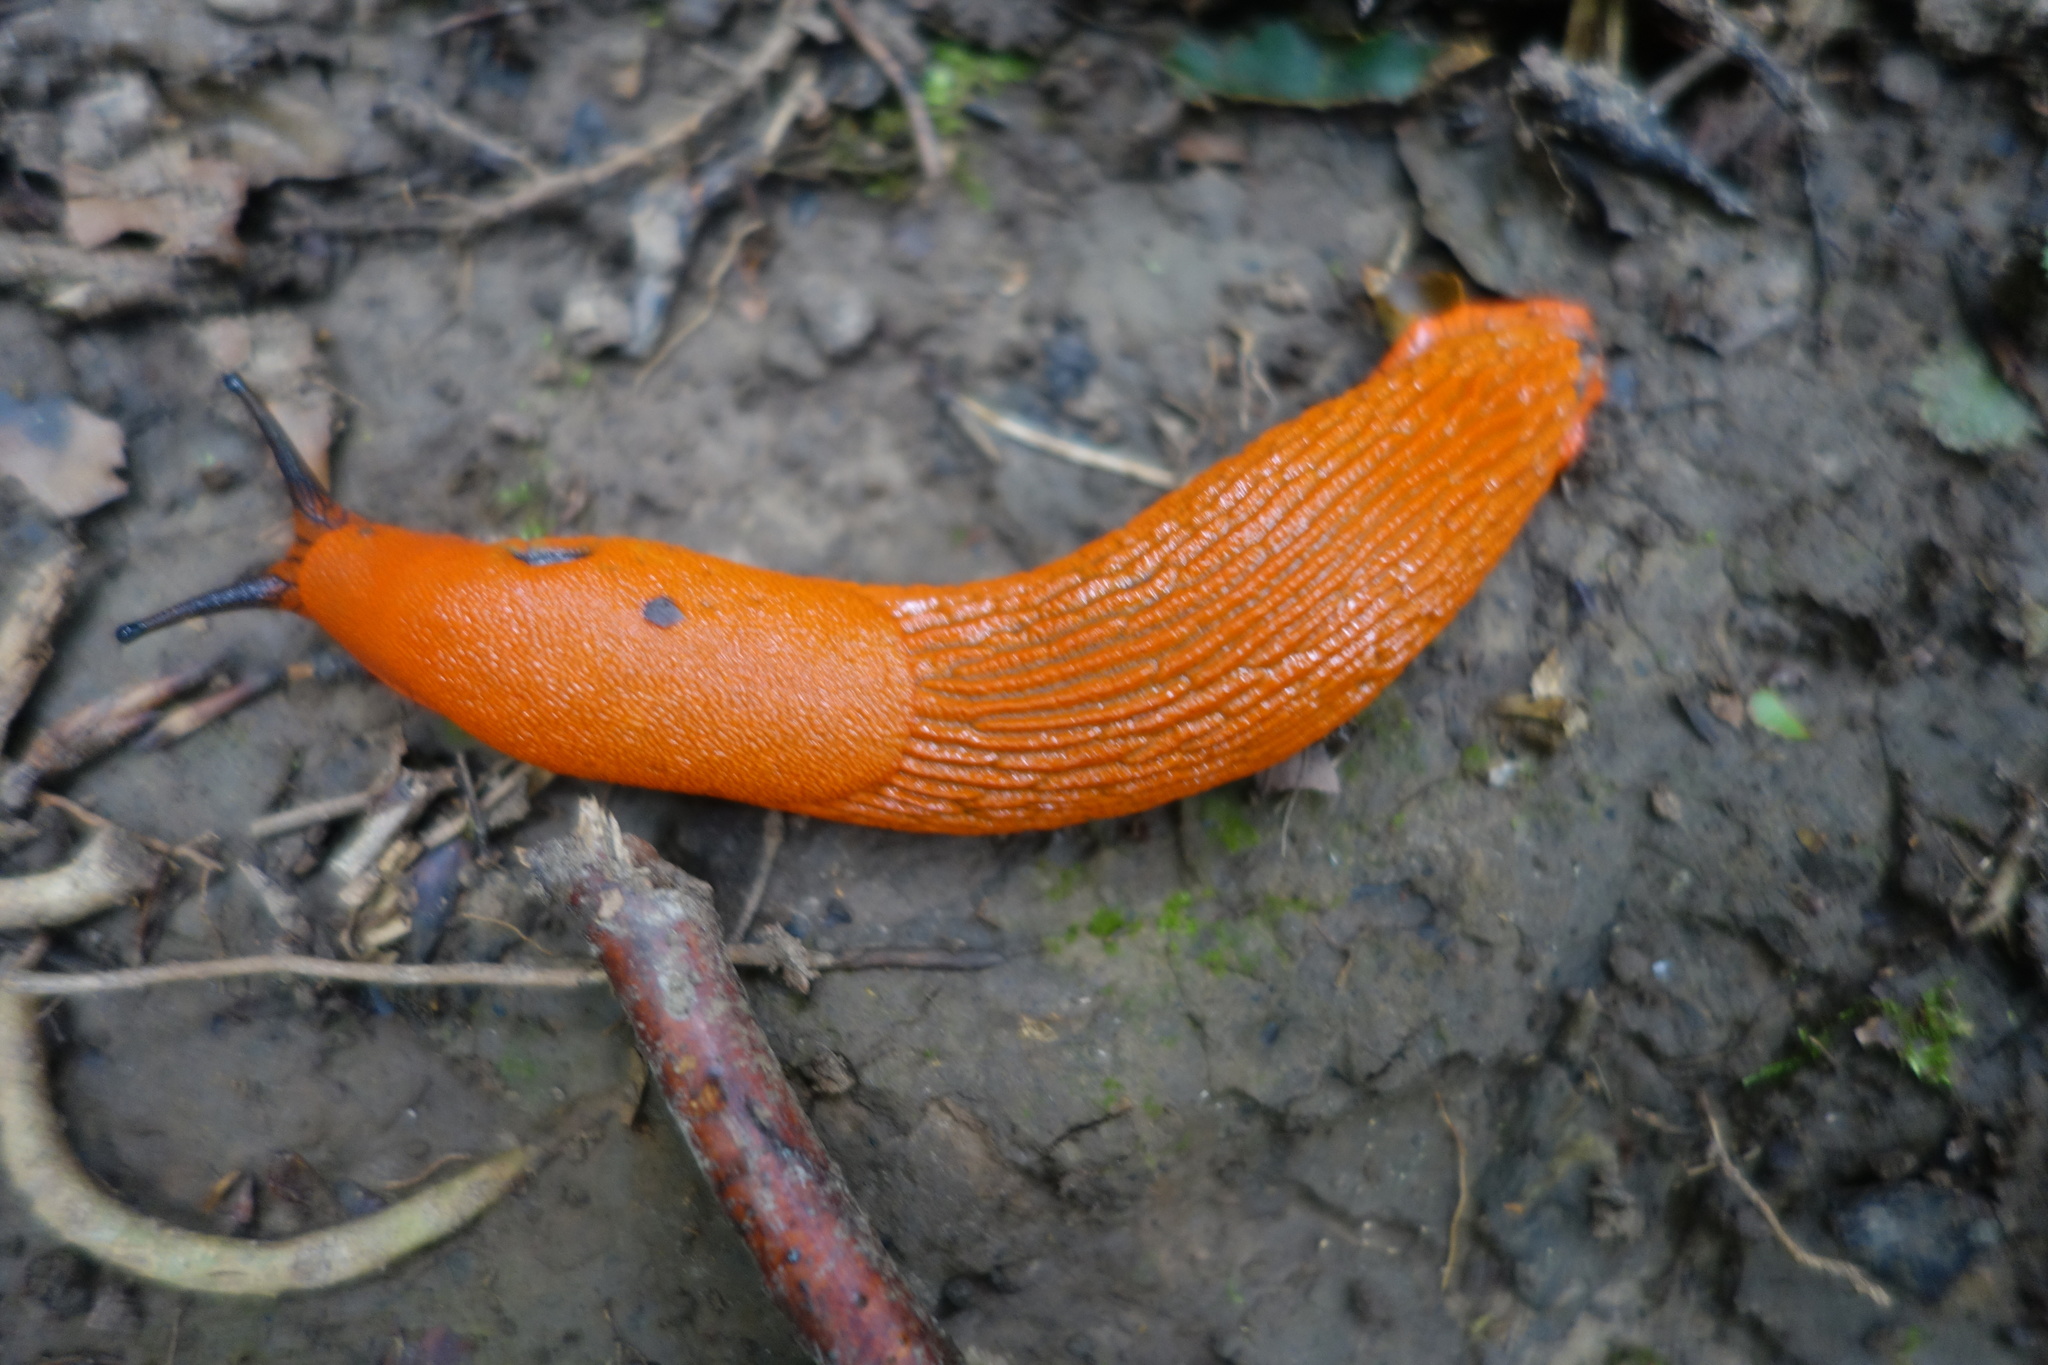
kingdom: Animalia
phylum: Mollusca
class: Gastropoda
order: Stylommatophora
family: Arionidae
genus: Arion
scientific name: Arion rufus
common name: Chocolate arion
